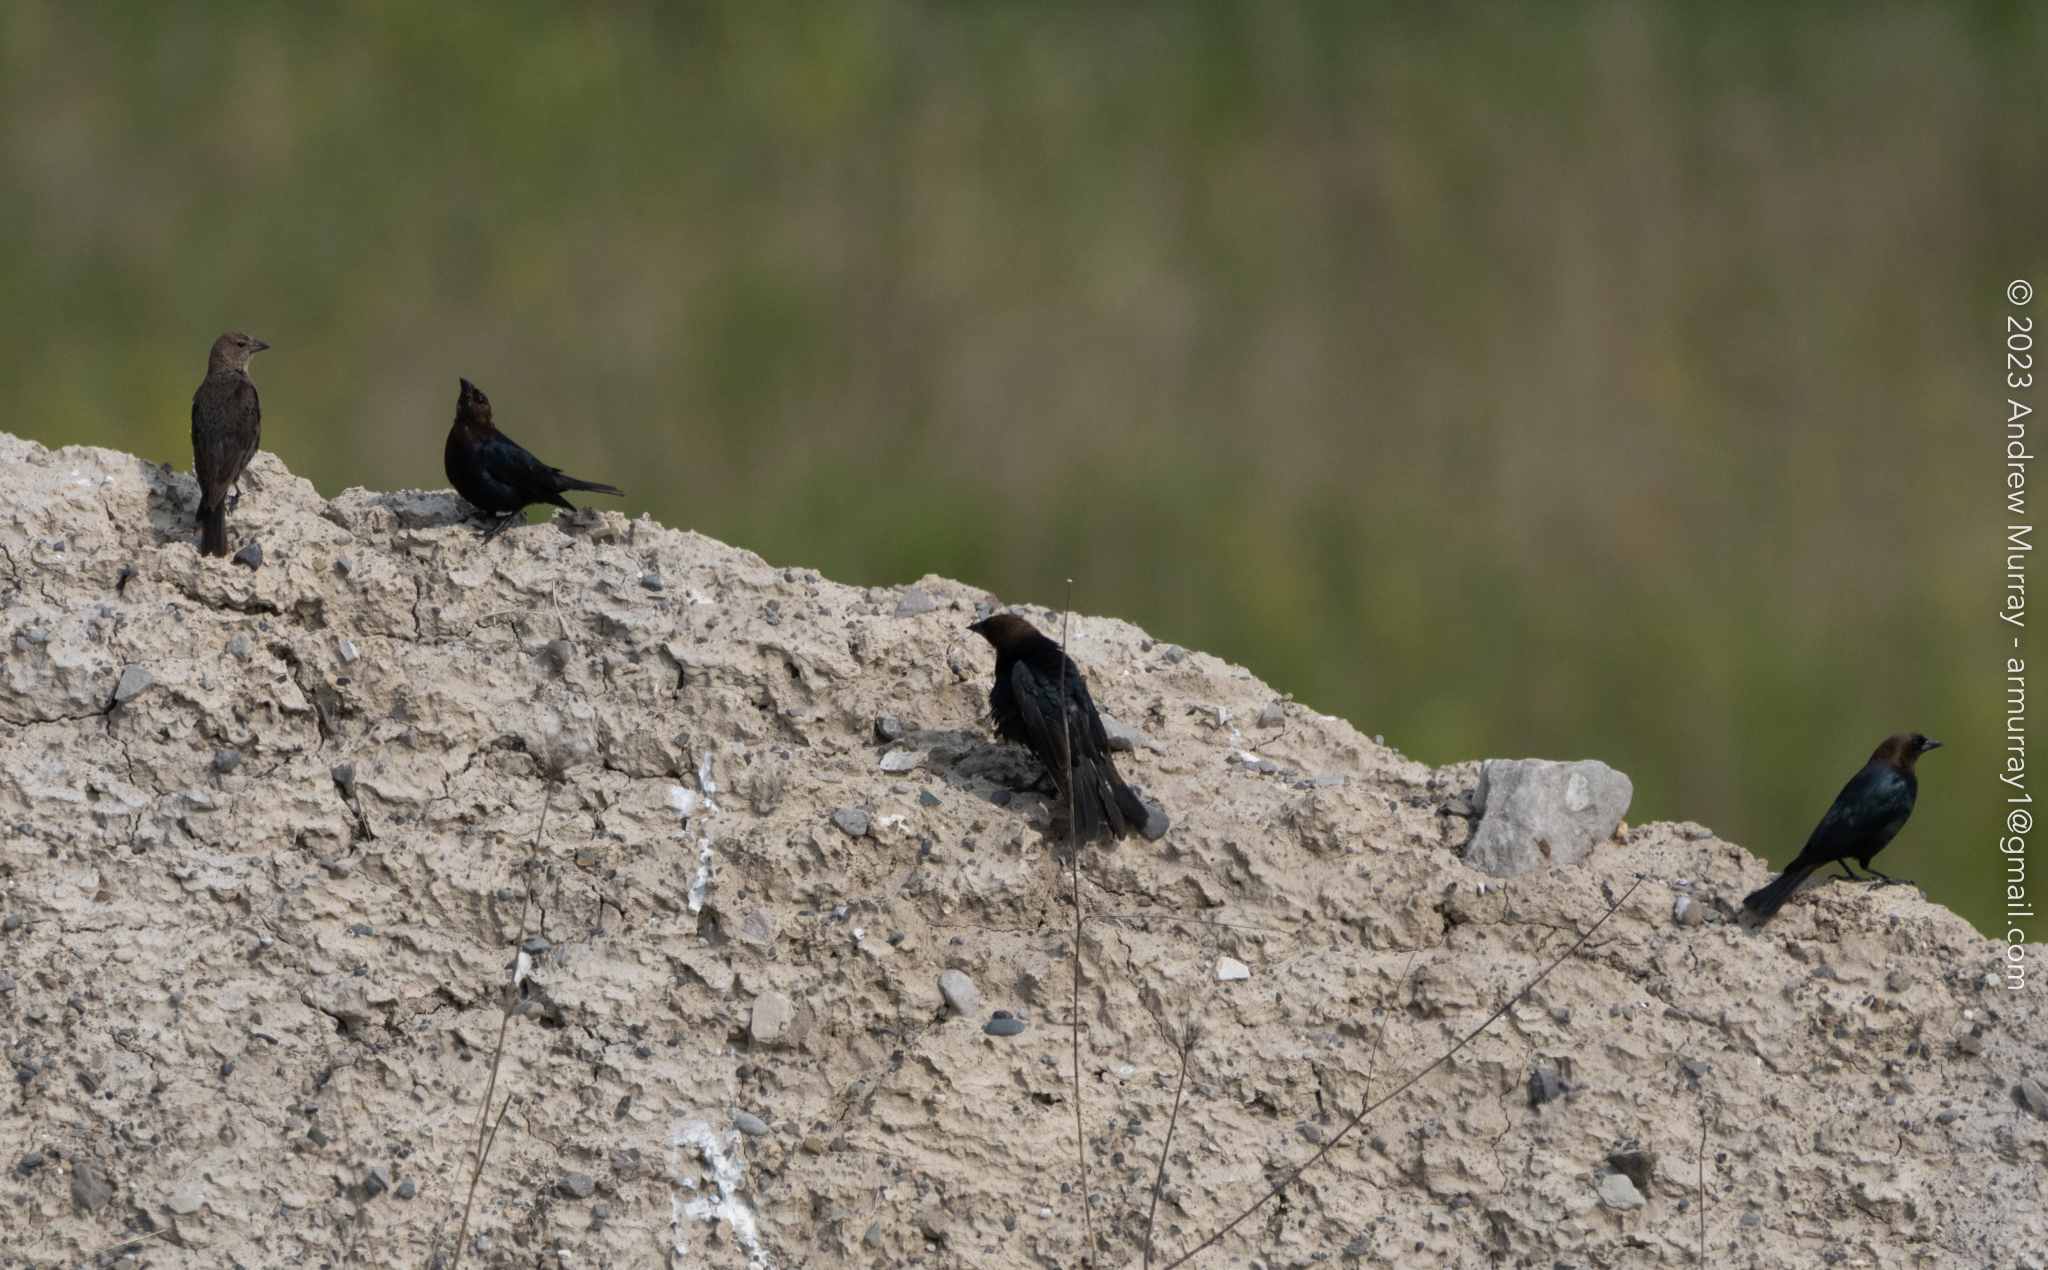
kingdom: Animalia
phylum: Chordata
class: Aves
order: Passeriformes
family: Icteridae
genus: Molothrus
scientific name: Molothrus ater
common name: Brown-headed cowbird
